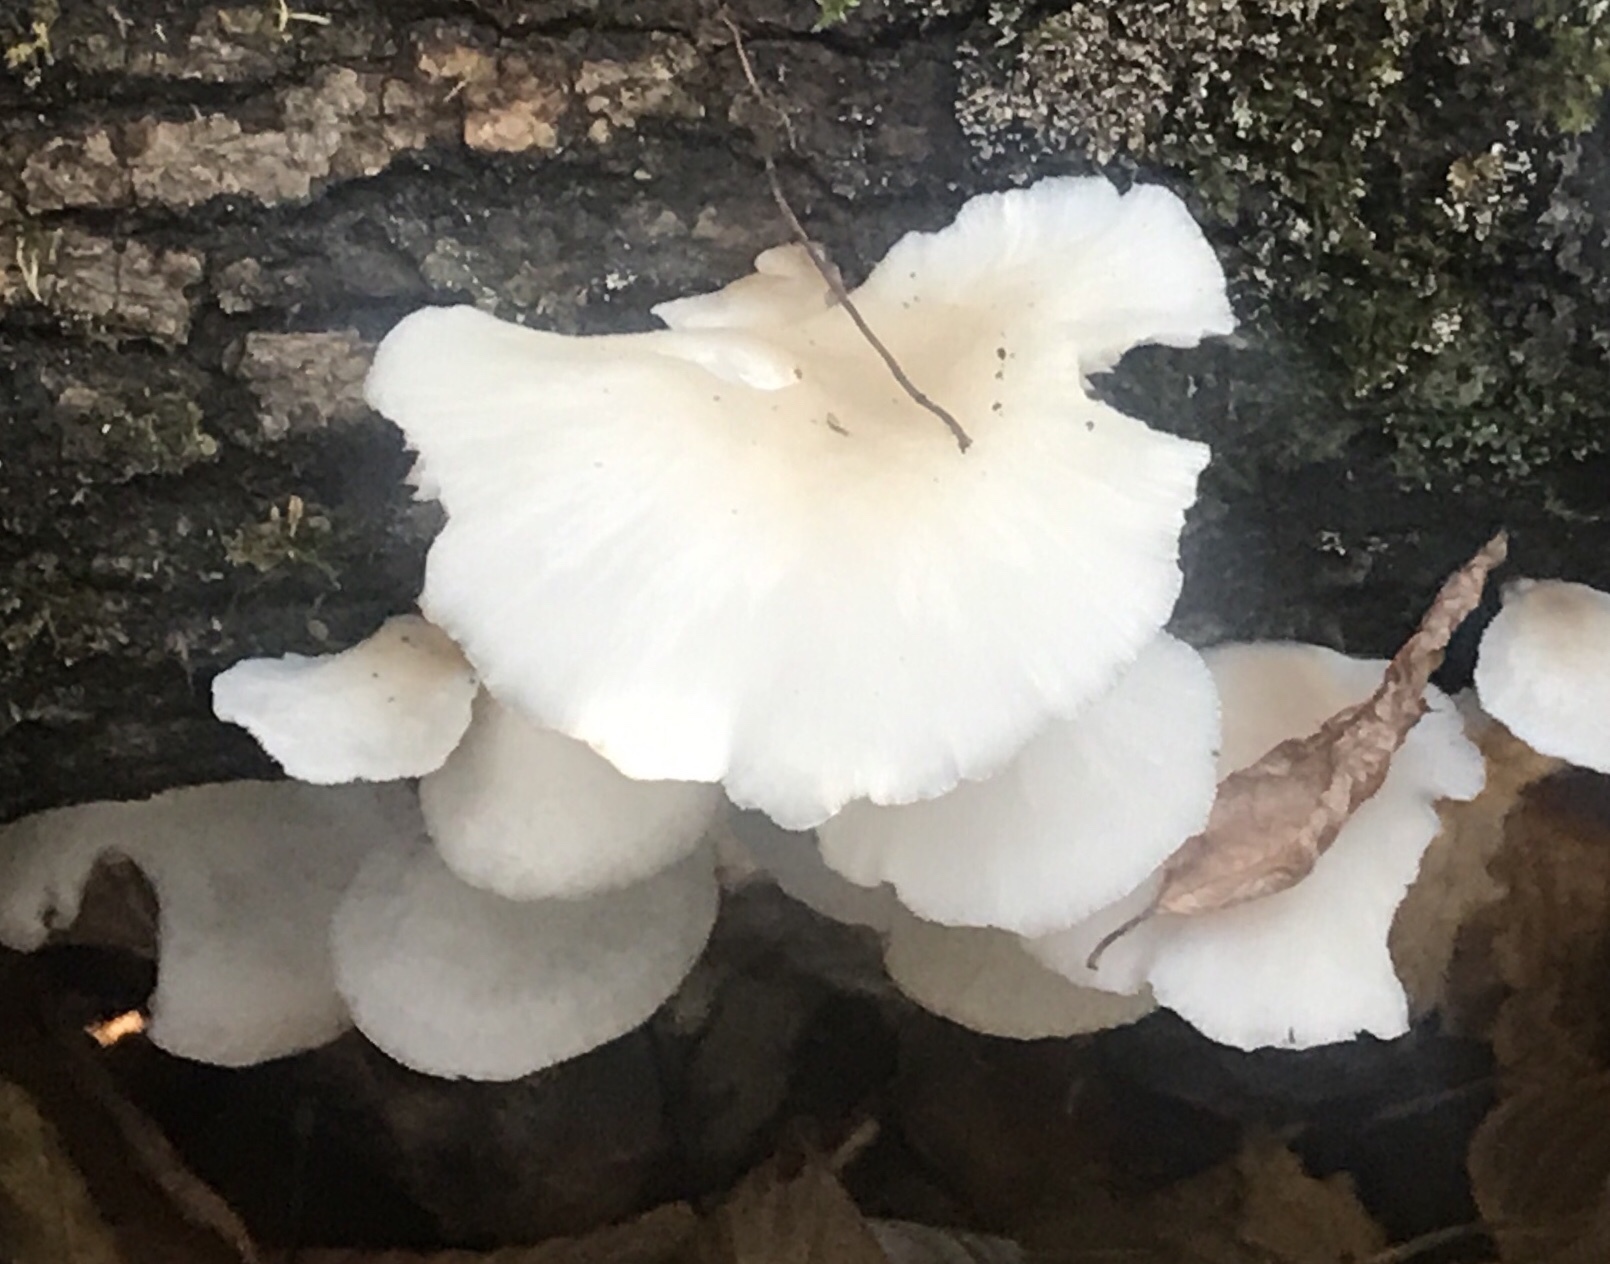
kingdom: Fungi
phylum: Basidiomycota
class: Agaricomycetes
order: Agaricales
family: Pleurotaceae
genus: Pleurotus
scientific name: Pleurotus ostreatus
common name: Oyster mushroom
